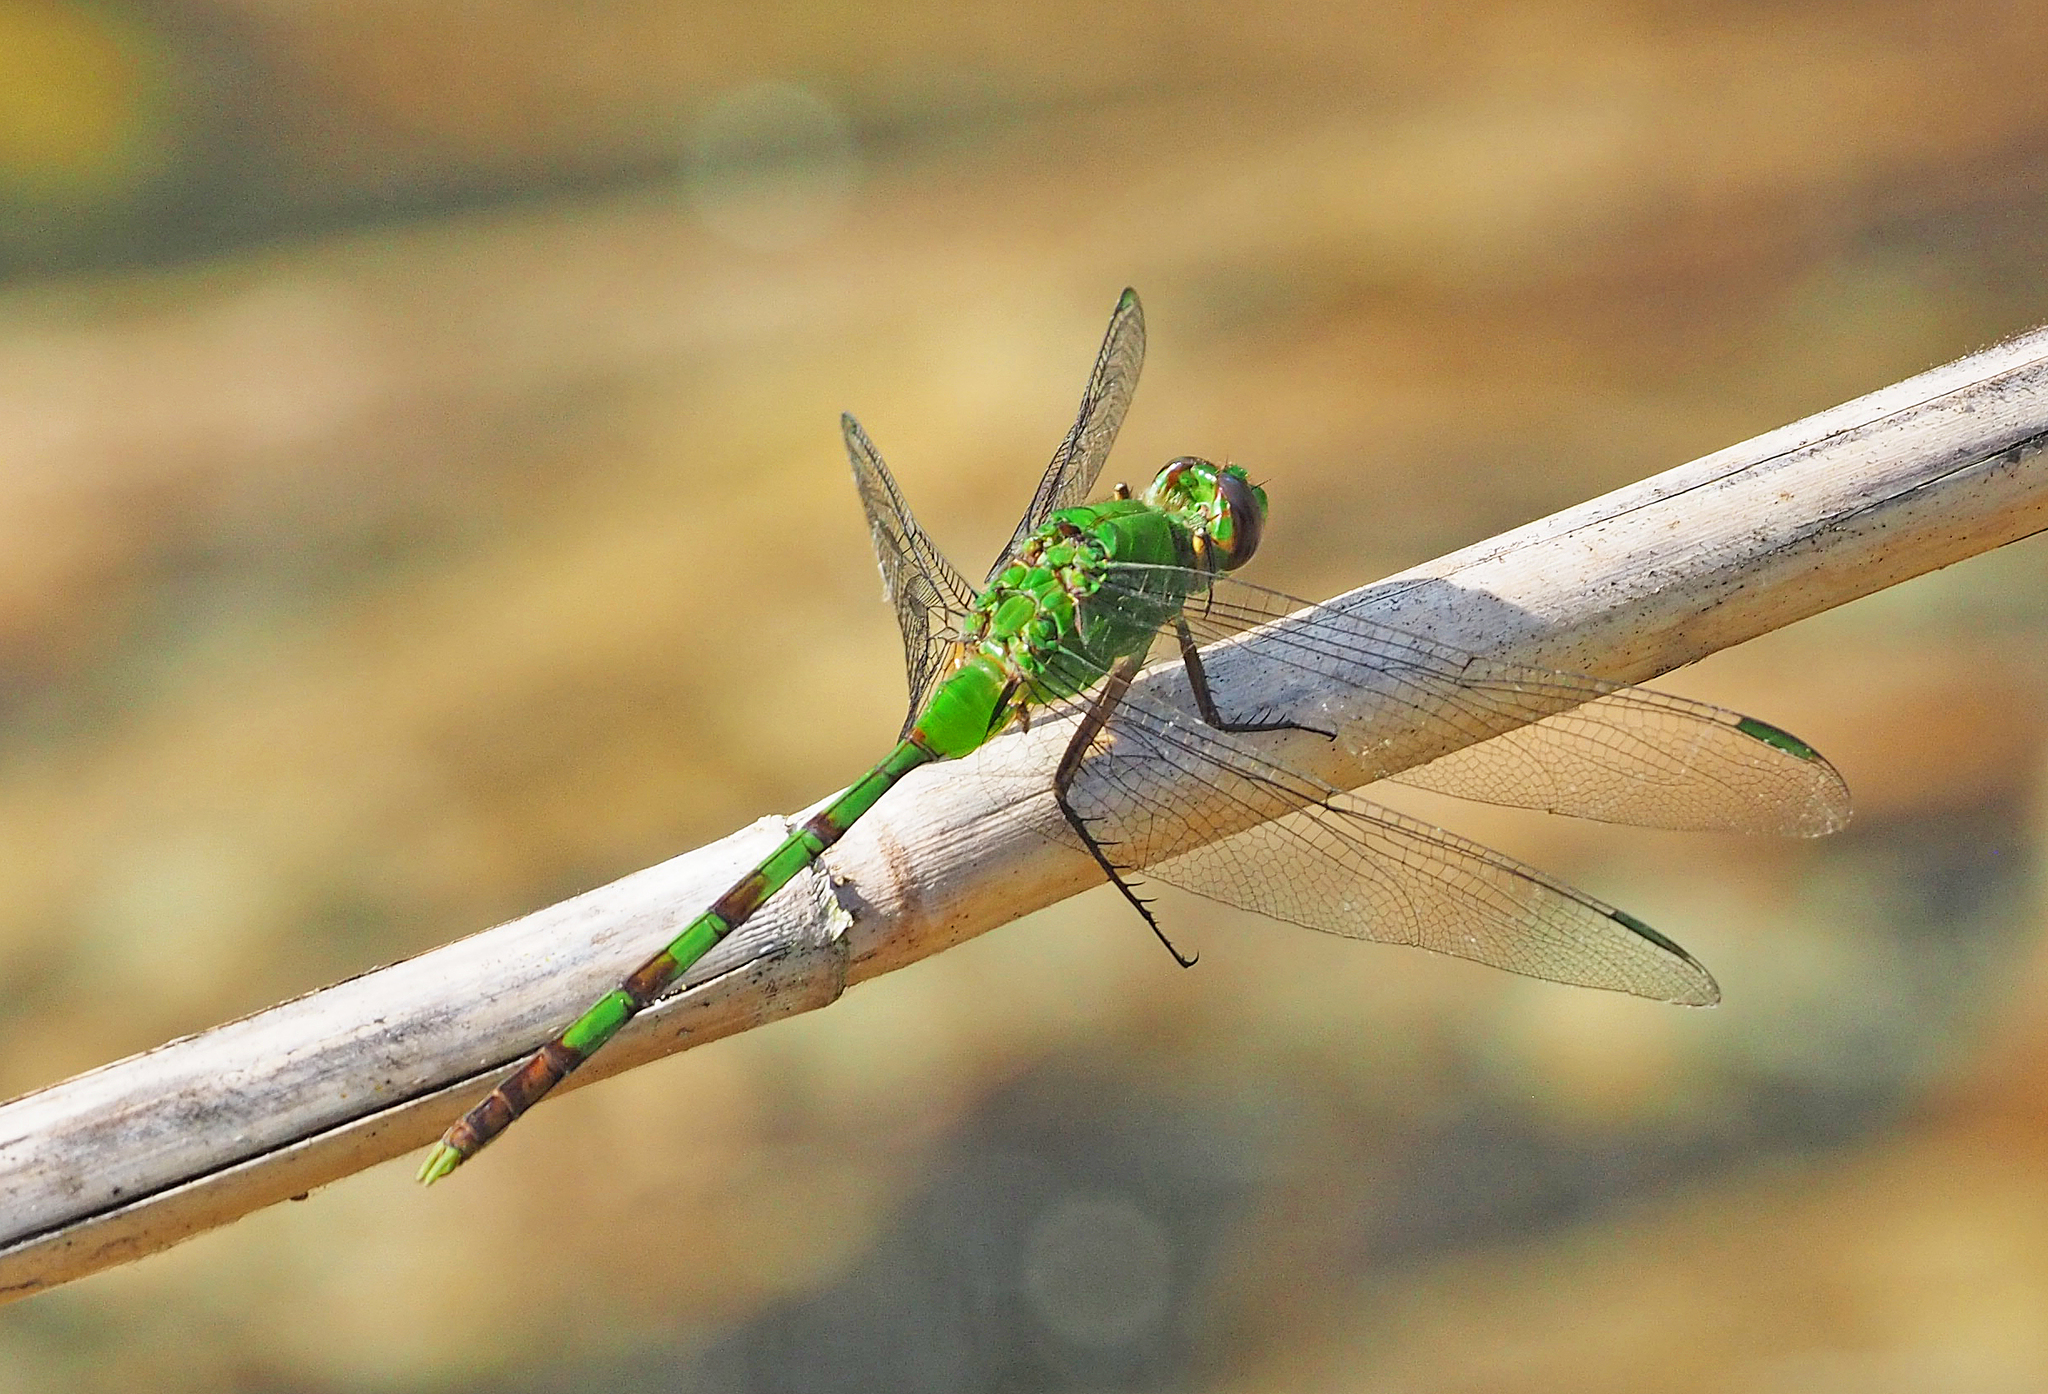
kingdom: Animalia
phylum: Arthropoda
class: Insecta
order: Odonata
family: Libellulidae
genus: Erythemis
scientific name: Erythemis vesiculosa
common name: Great pondhawk
